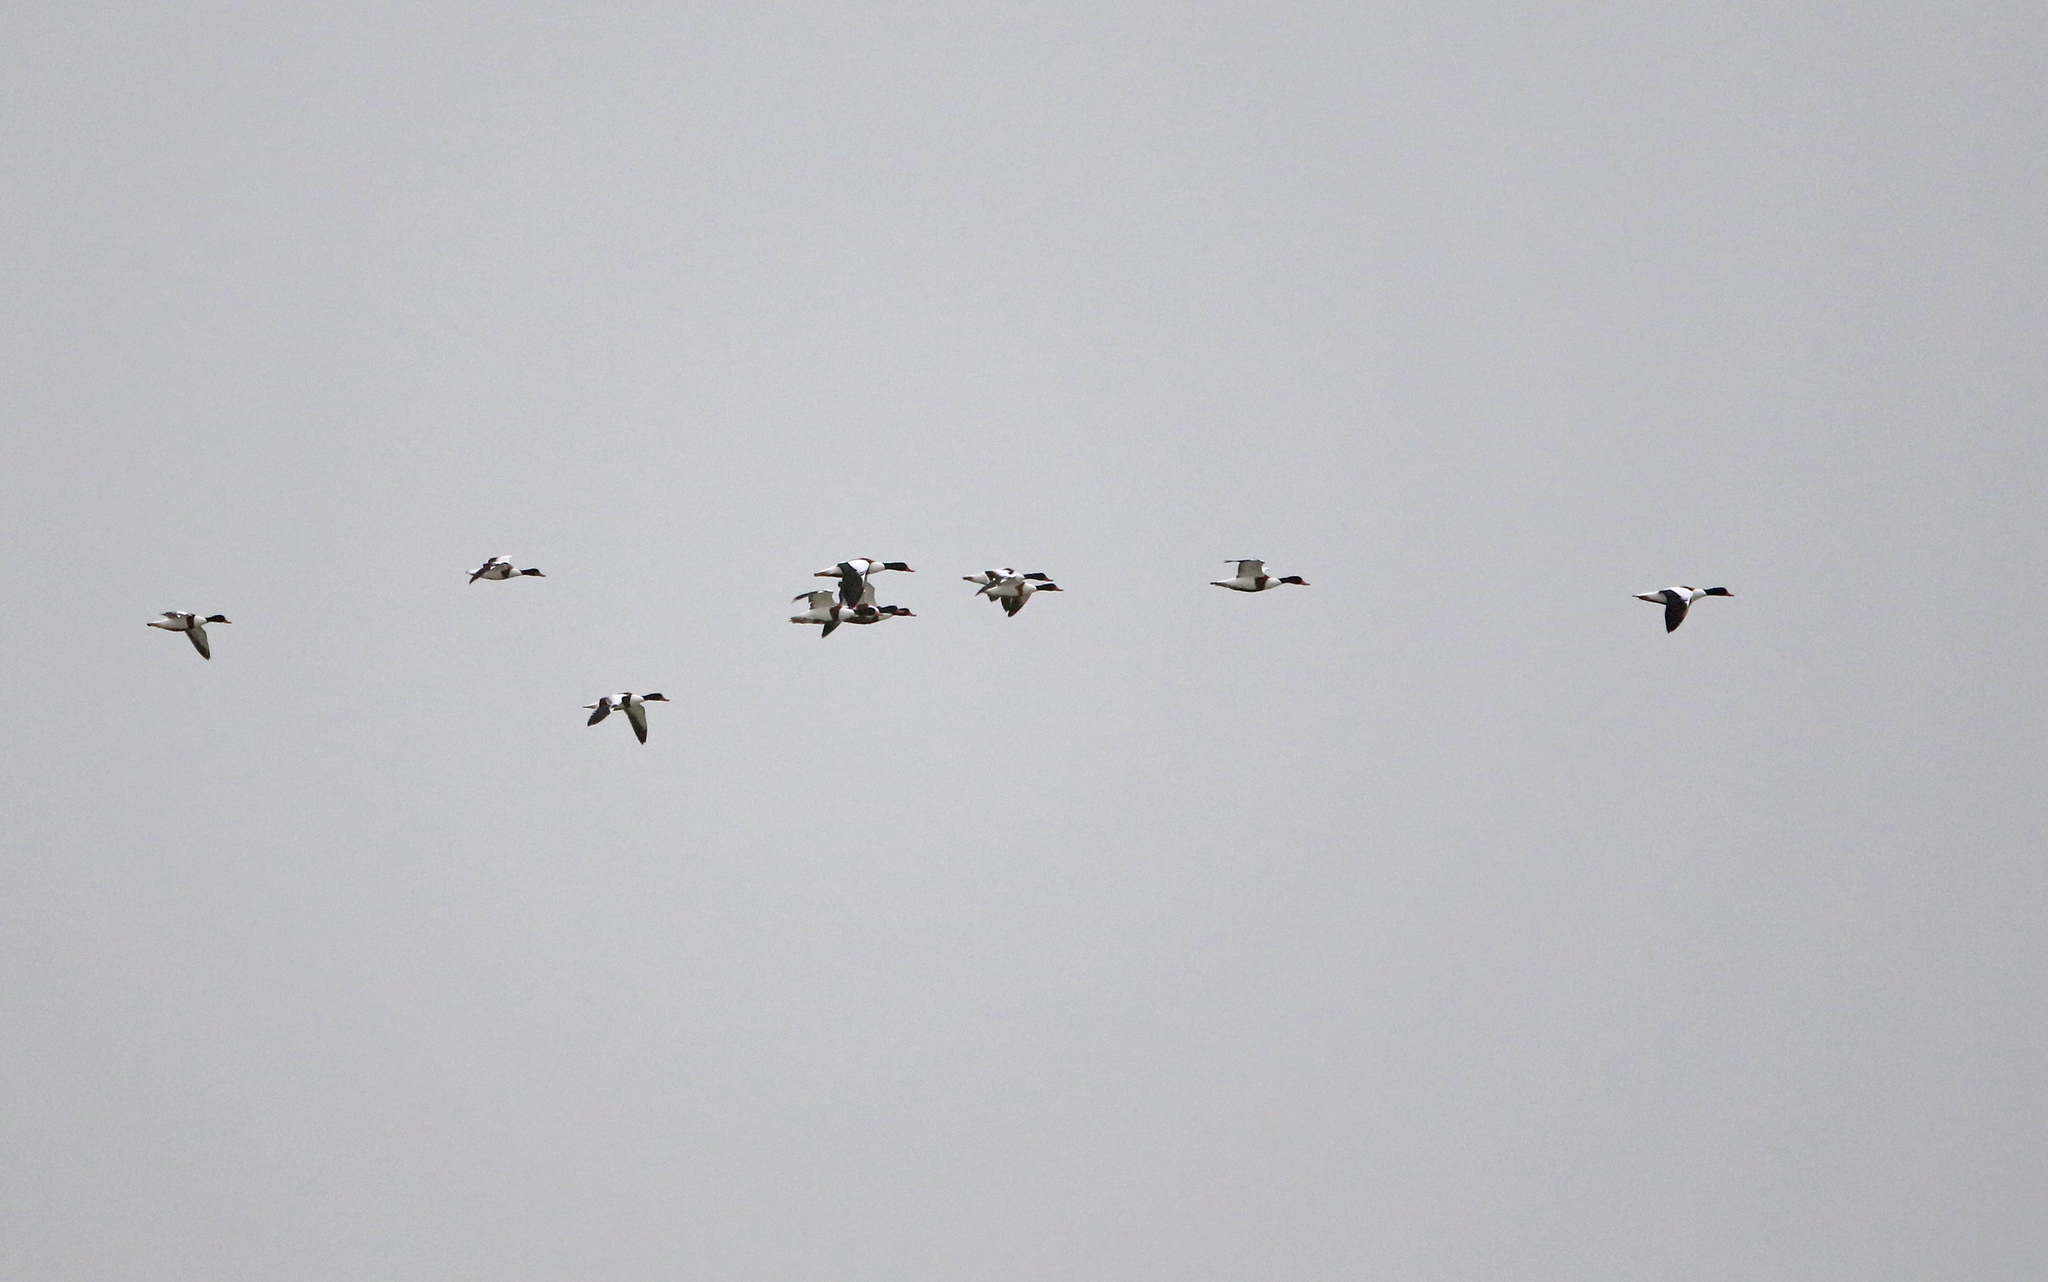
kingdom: Animalia
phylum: Chordata
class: Aves
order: Anseriformes
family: Anatidae
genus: Tadorna
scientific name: Tadorna tadorna
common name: Common shelduck
